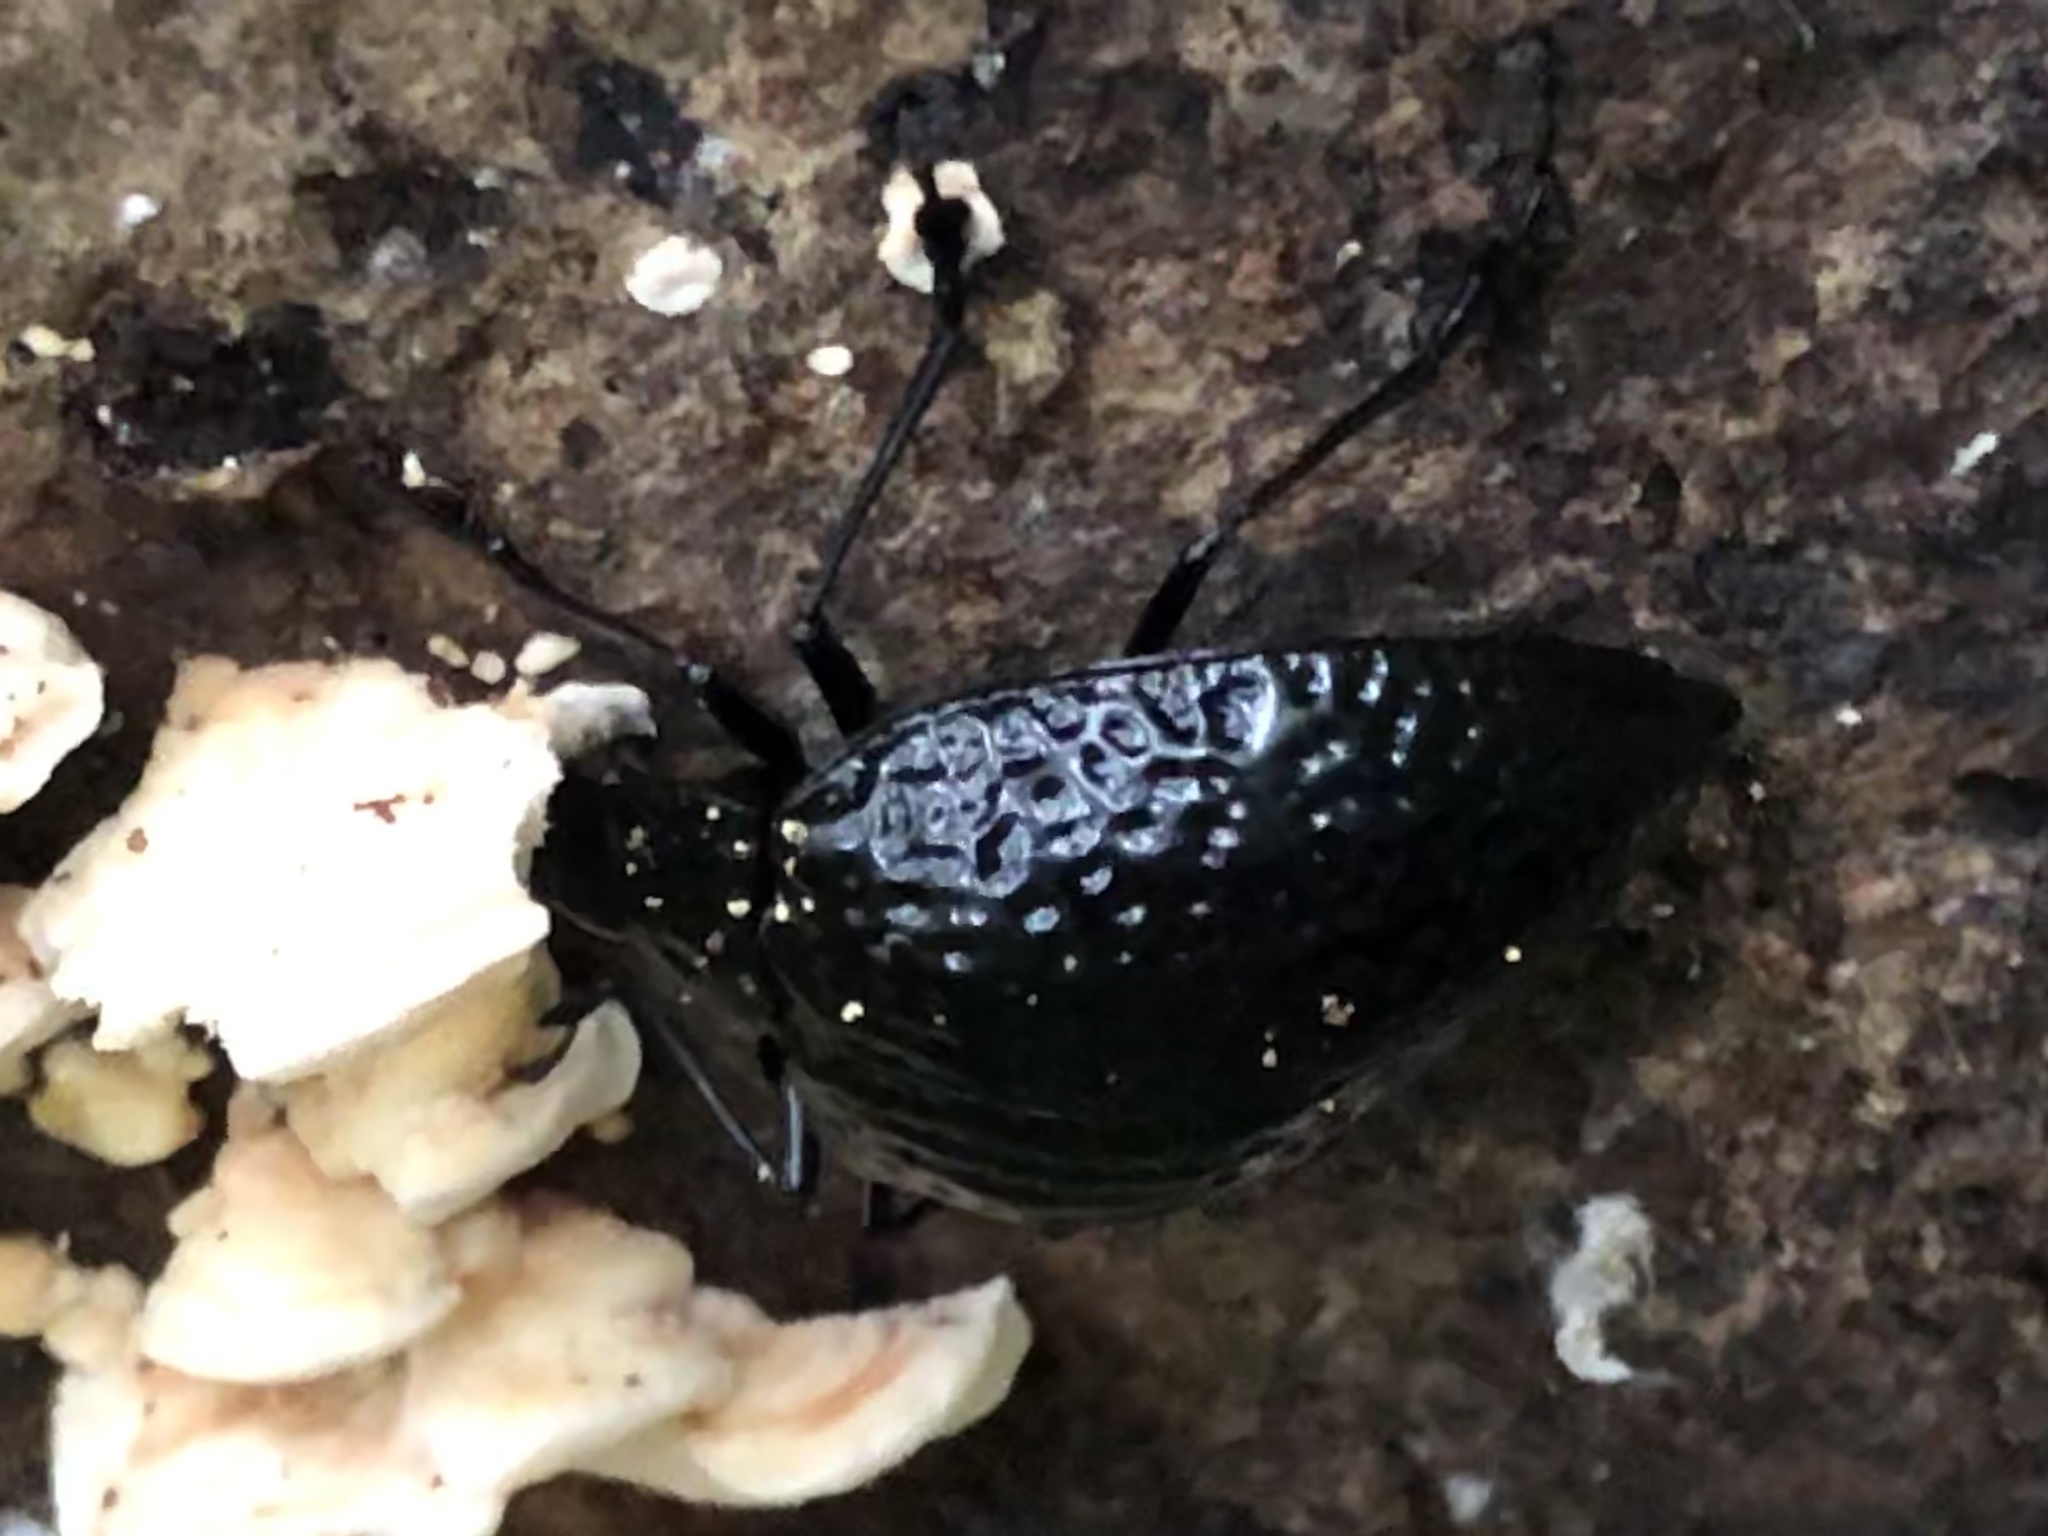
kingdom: Animalia
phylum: Arthropoda
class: Insecta
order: Coleoptera
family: Erotylidae
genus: Erotylus
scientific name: Erotylus
